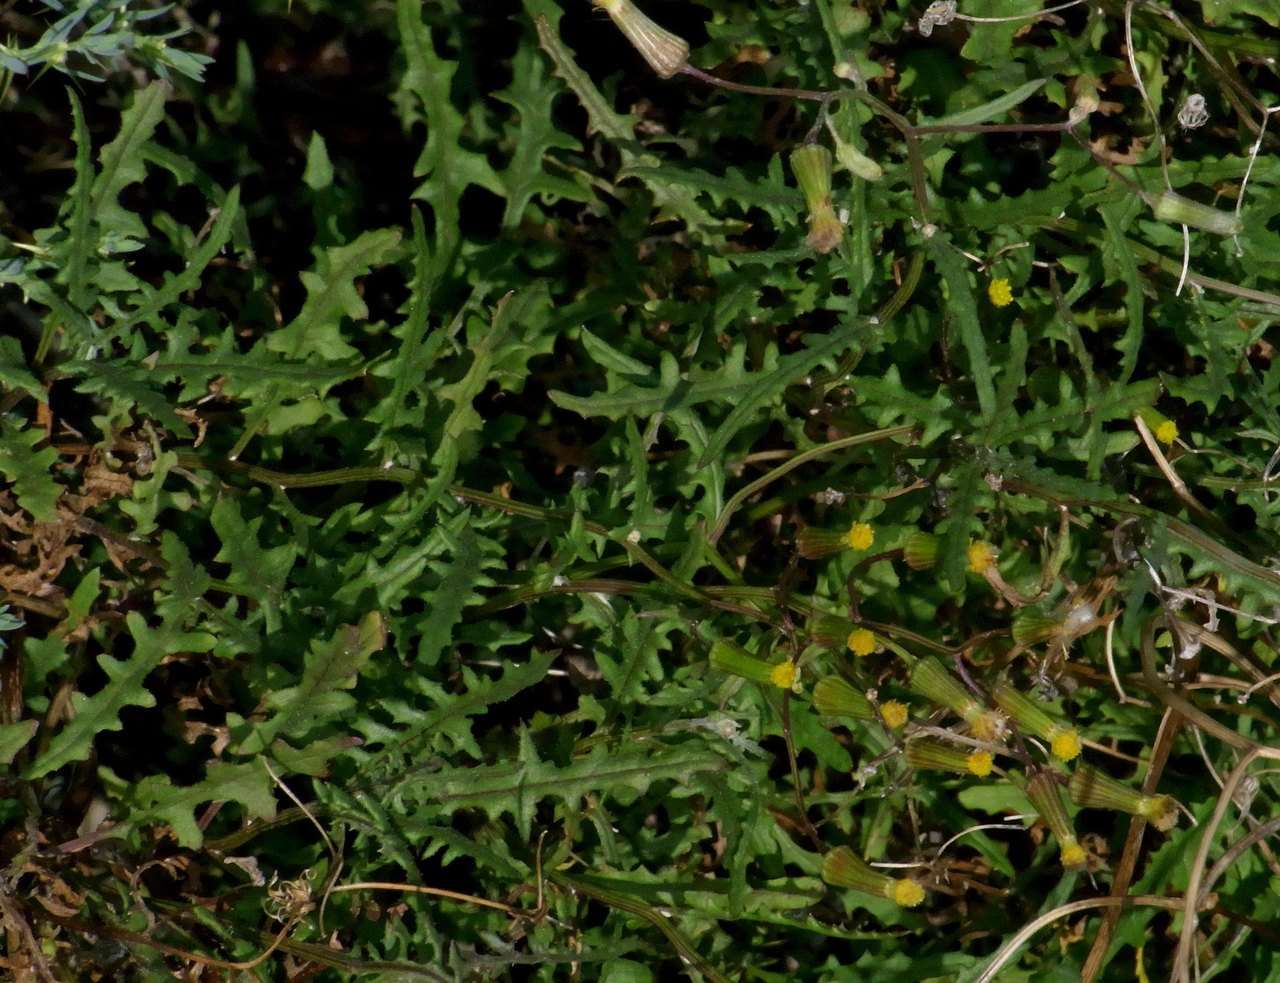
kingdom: Plantae
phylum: Tracheophyta
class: Magnoliopsida
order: Asterales
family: Asteraceae
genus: Senecio
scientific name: Senecio runcinifolius
